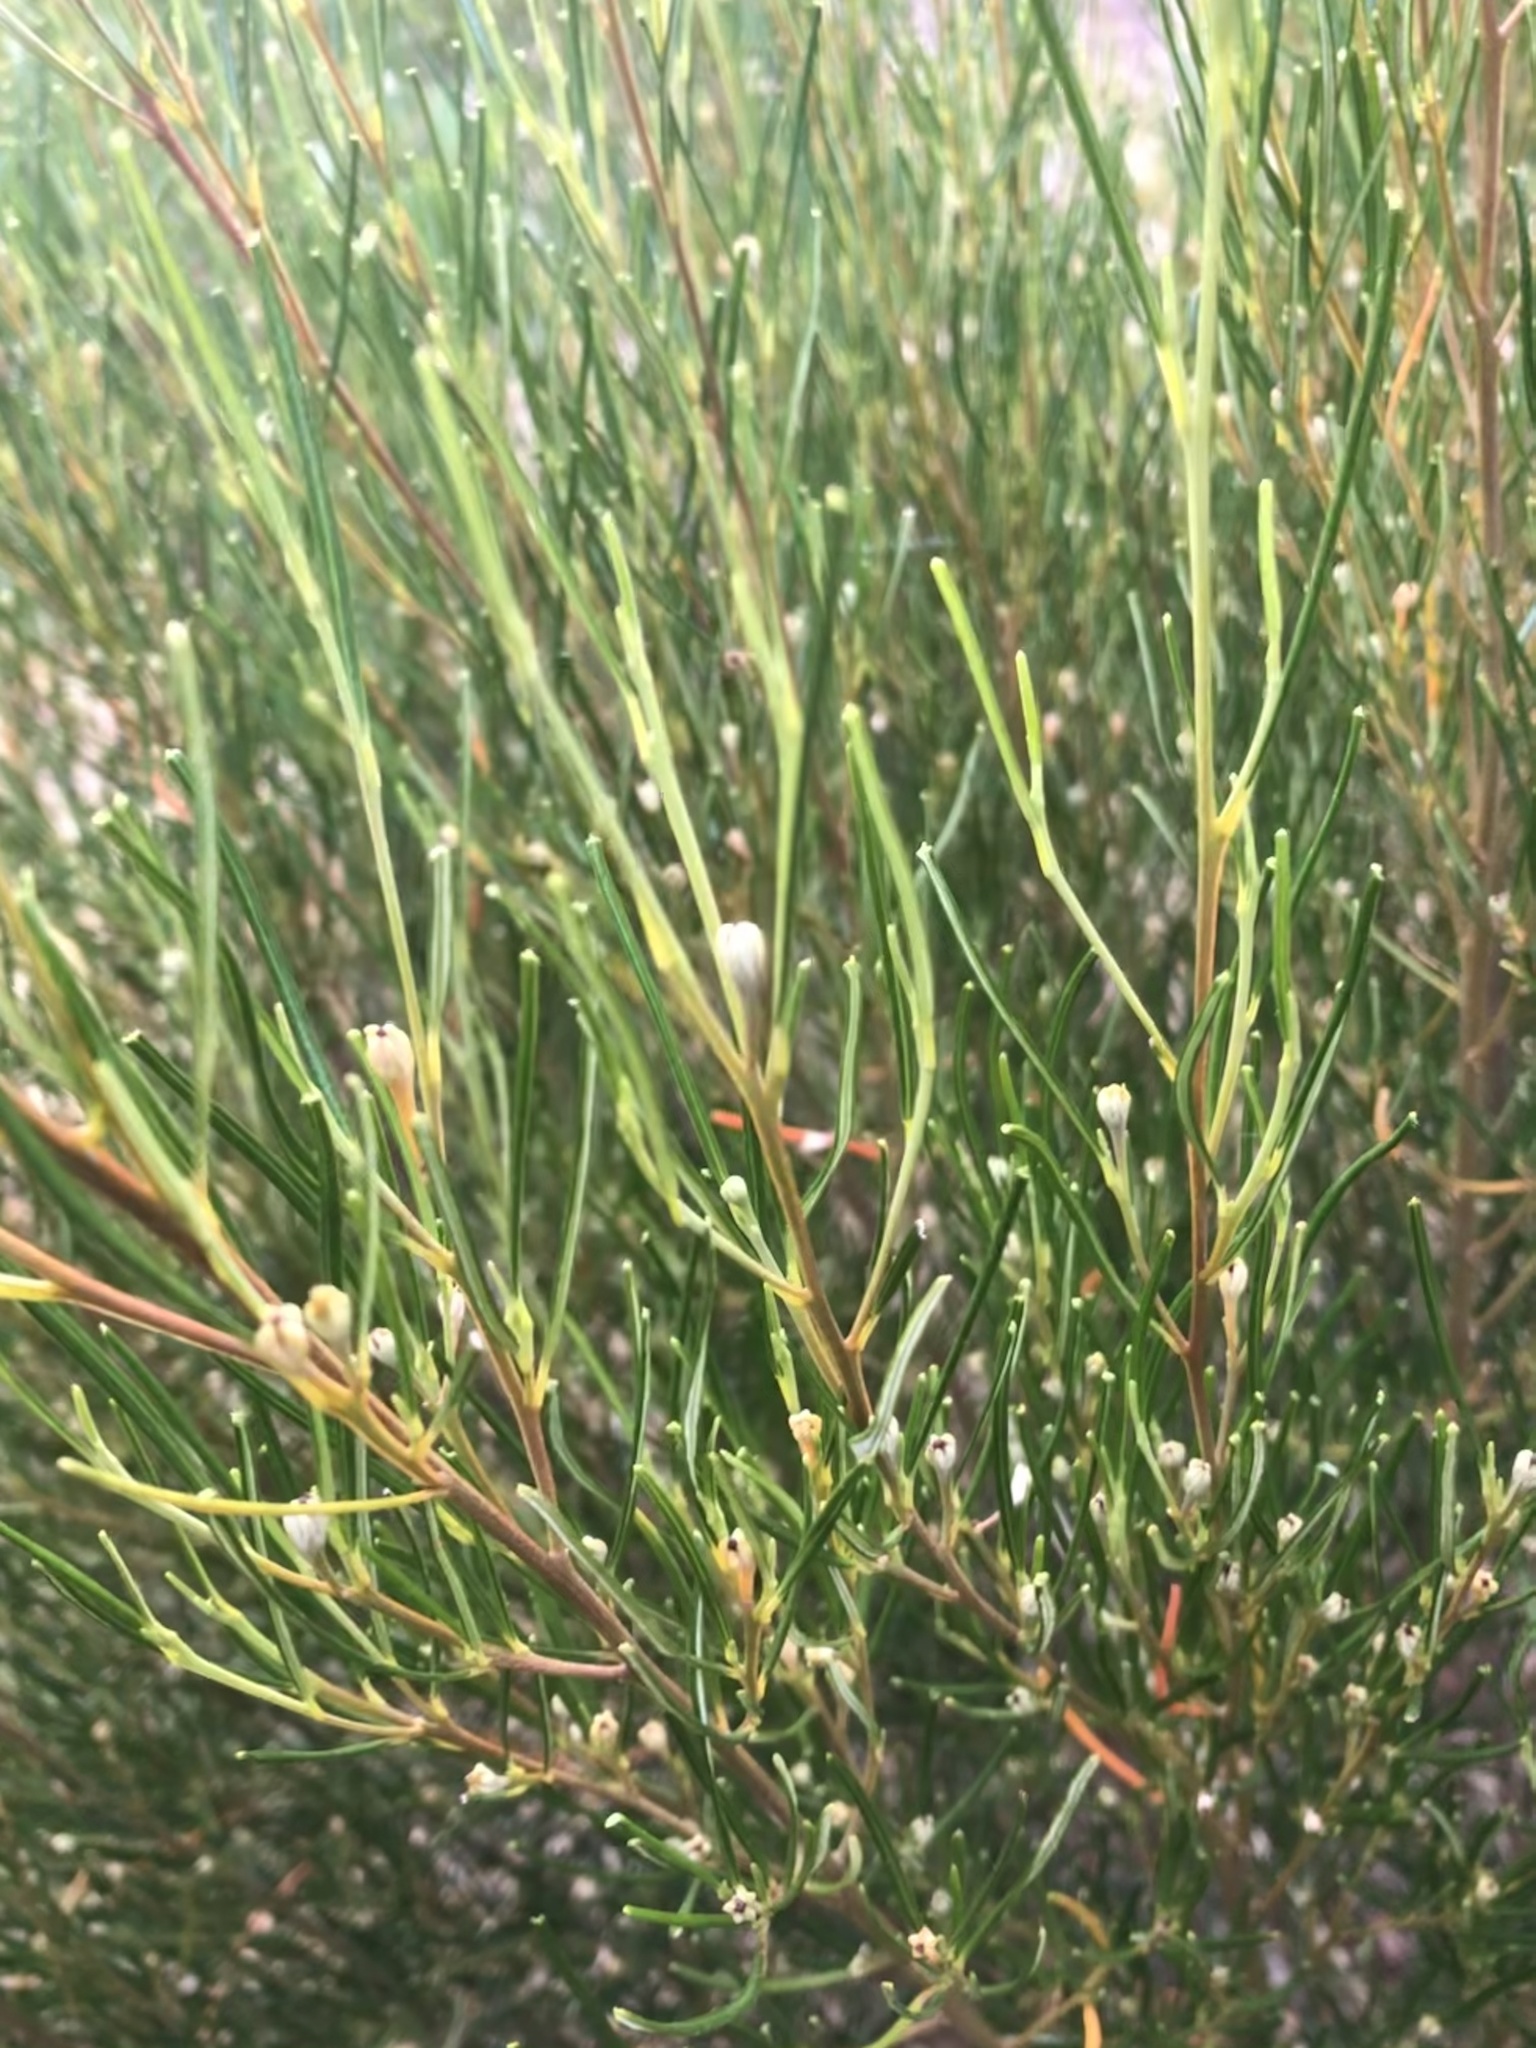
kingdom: Plantae
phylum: Tracheophyta
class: Magnoliopsida
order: Malpighiales
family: Euphorbiaceae
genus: Beyeria
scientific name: Beyeria lechenaultii
